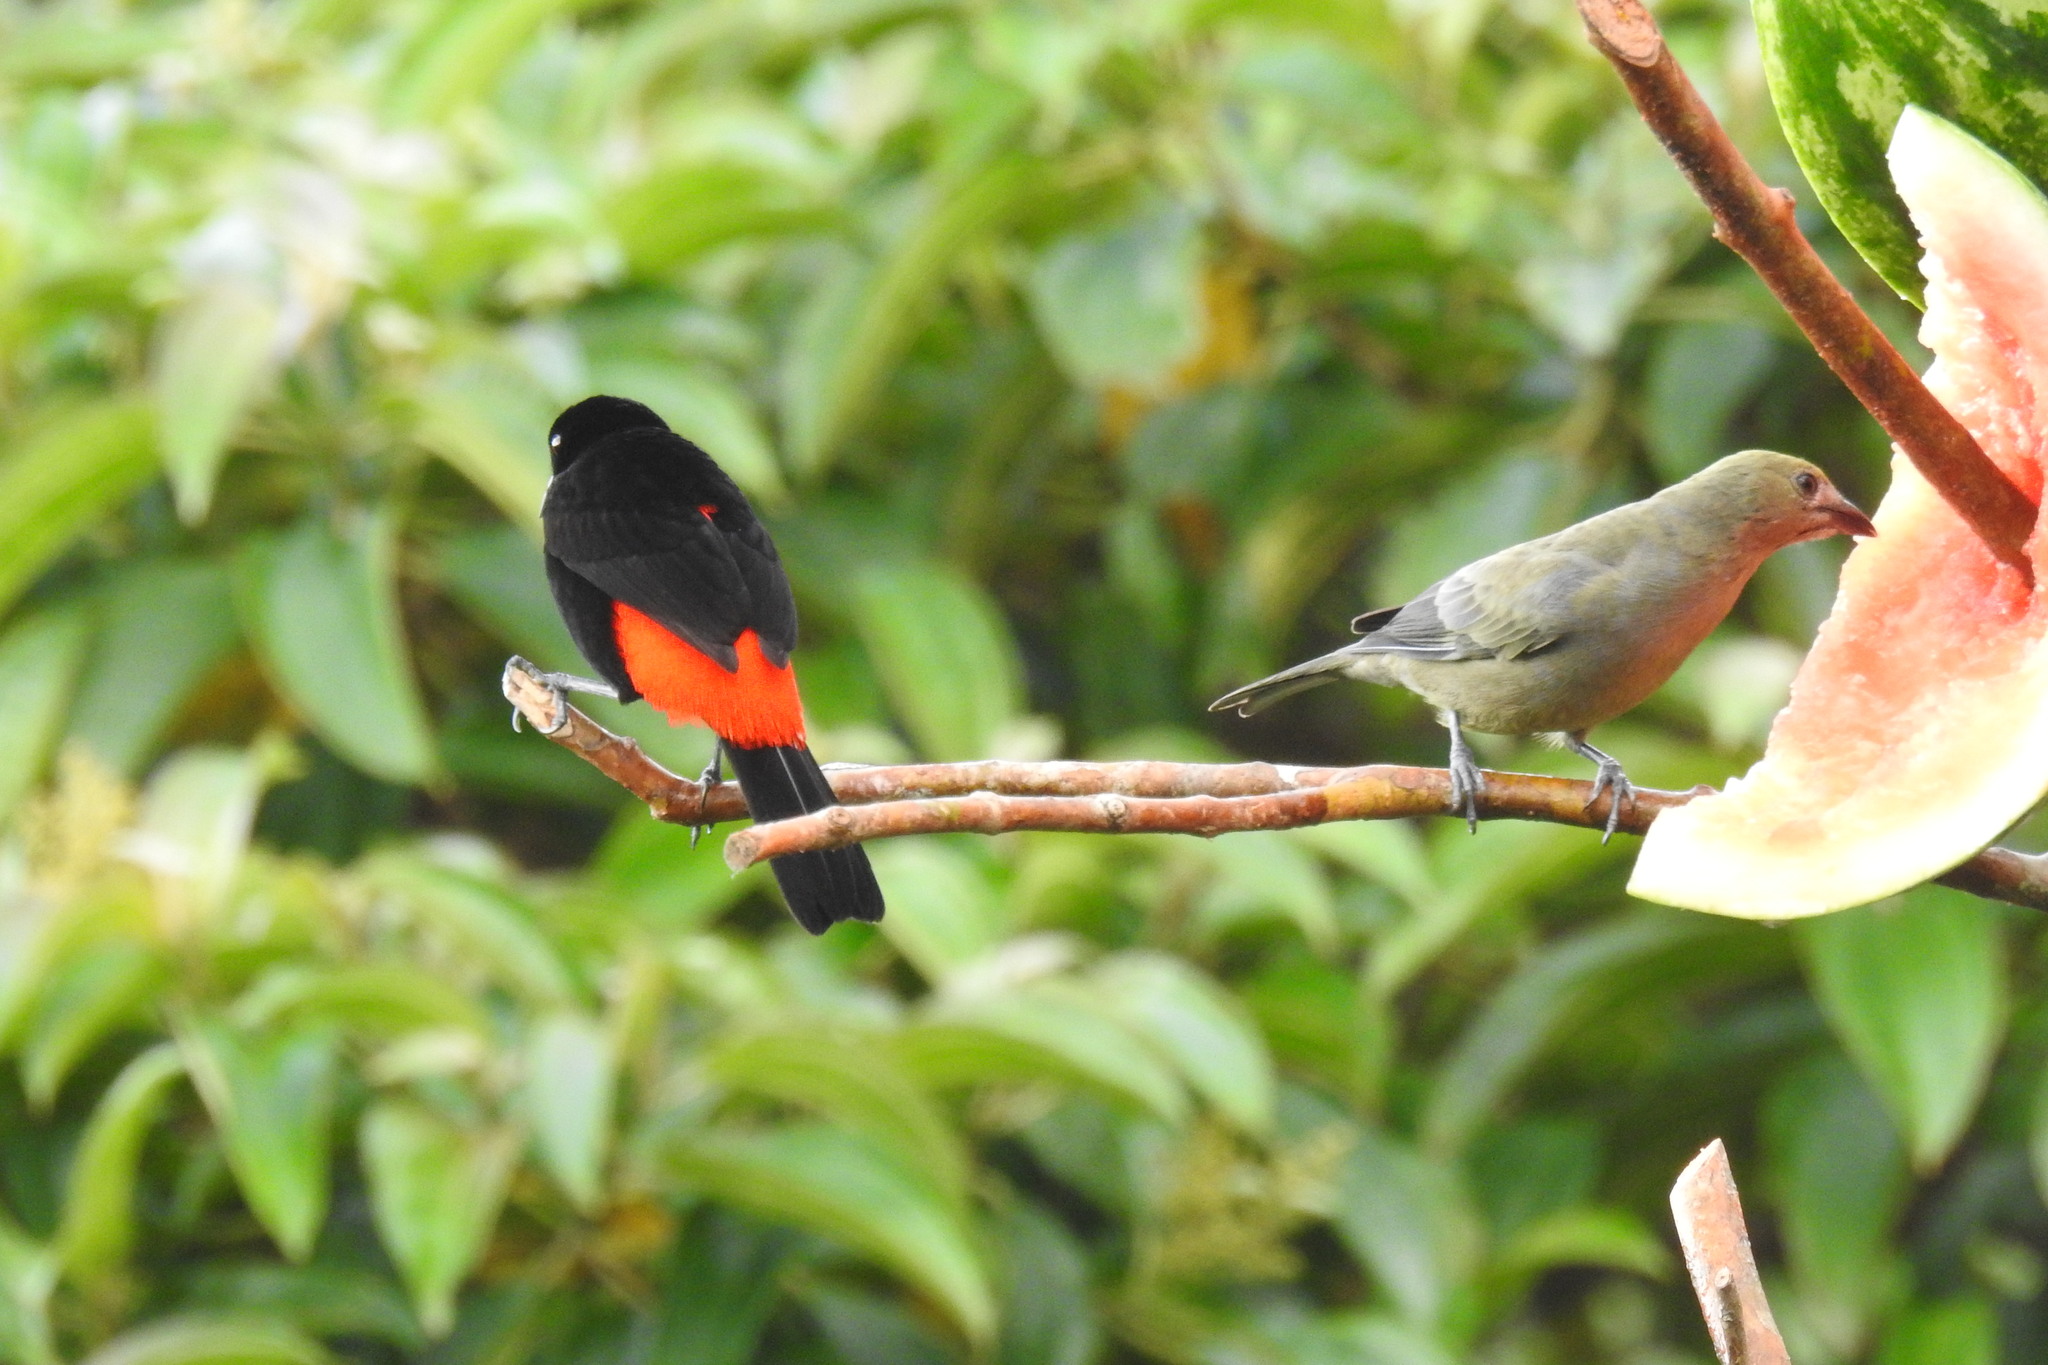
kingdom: Animalia
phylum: Chordata
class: Aves
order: Passeriformes
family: Thraupidae
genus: Ramphocelus
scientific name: Ramphocelus passerinii
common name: Passerini's tanager
